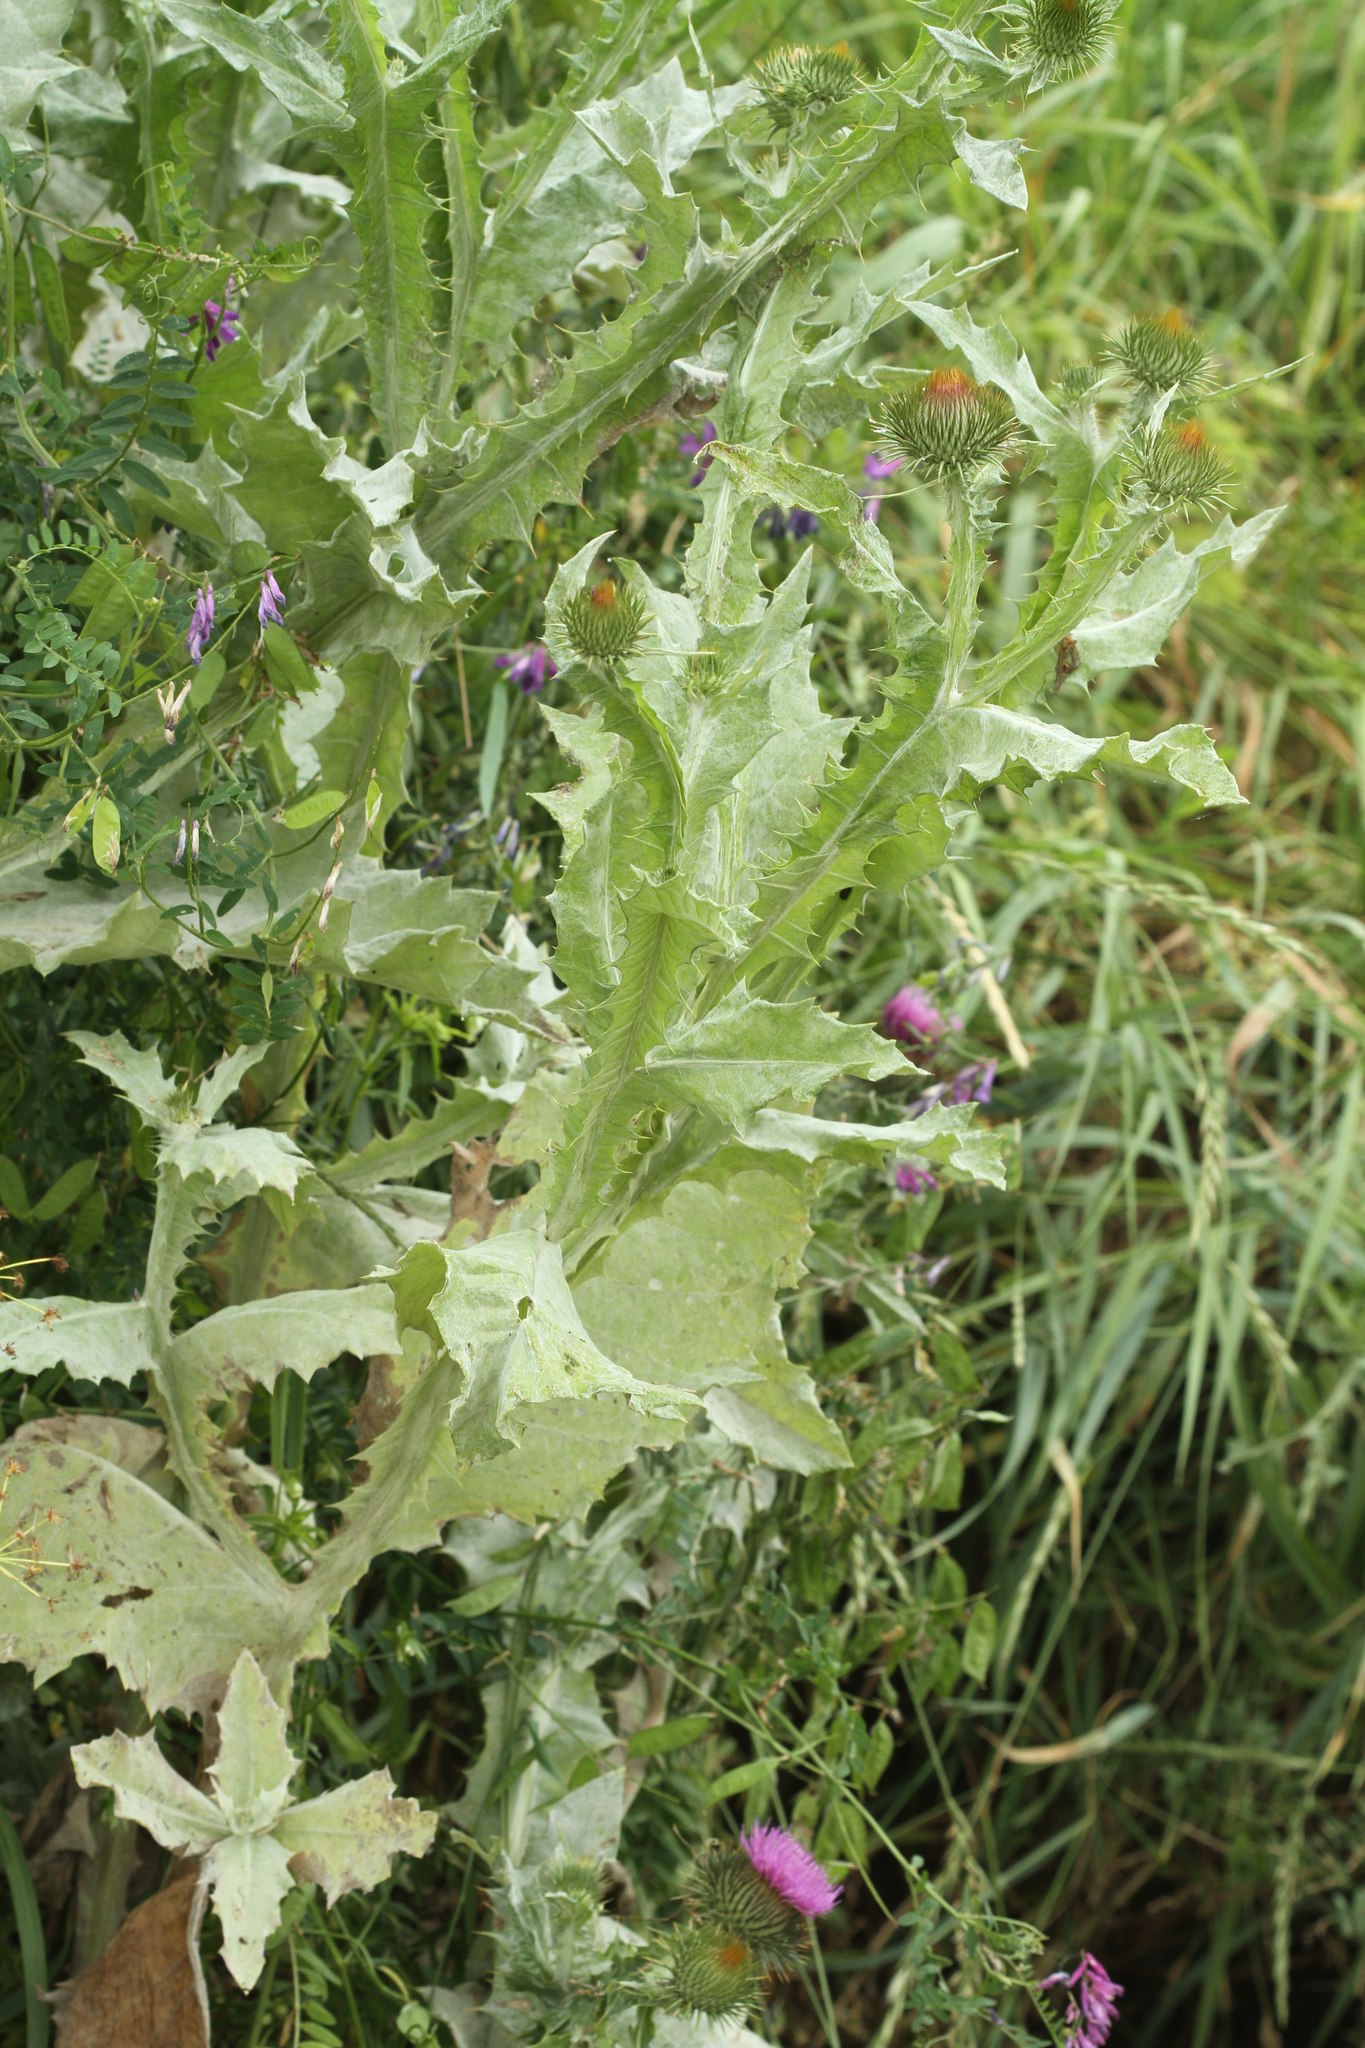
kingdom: Plantae
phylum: Tracheophyta
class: Magnoliopsida
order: Asterales
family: Asteraceae
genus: Onopordum
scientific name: Onopordum acanthium
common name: Scotch thistle
